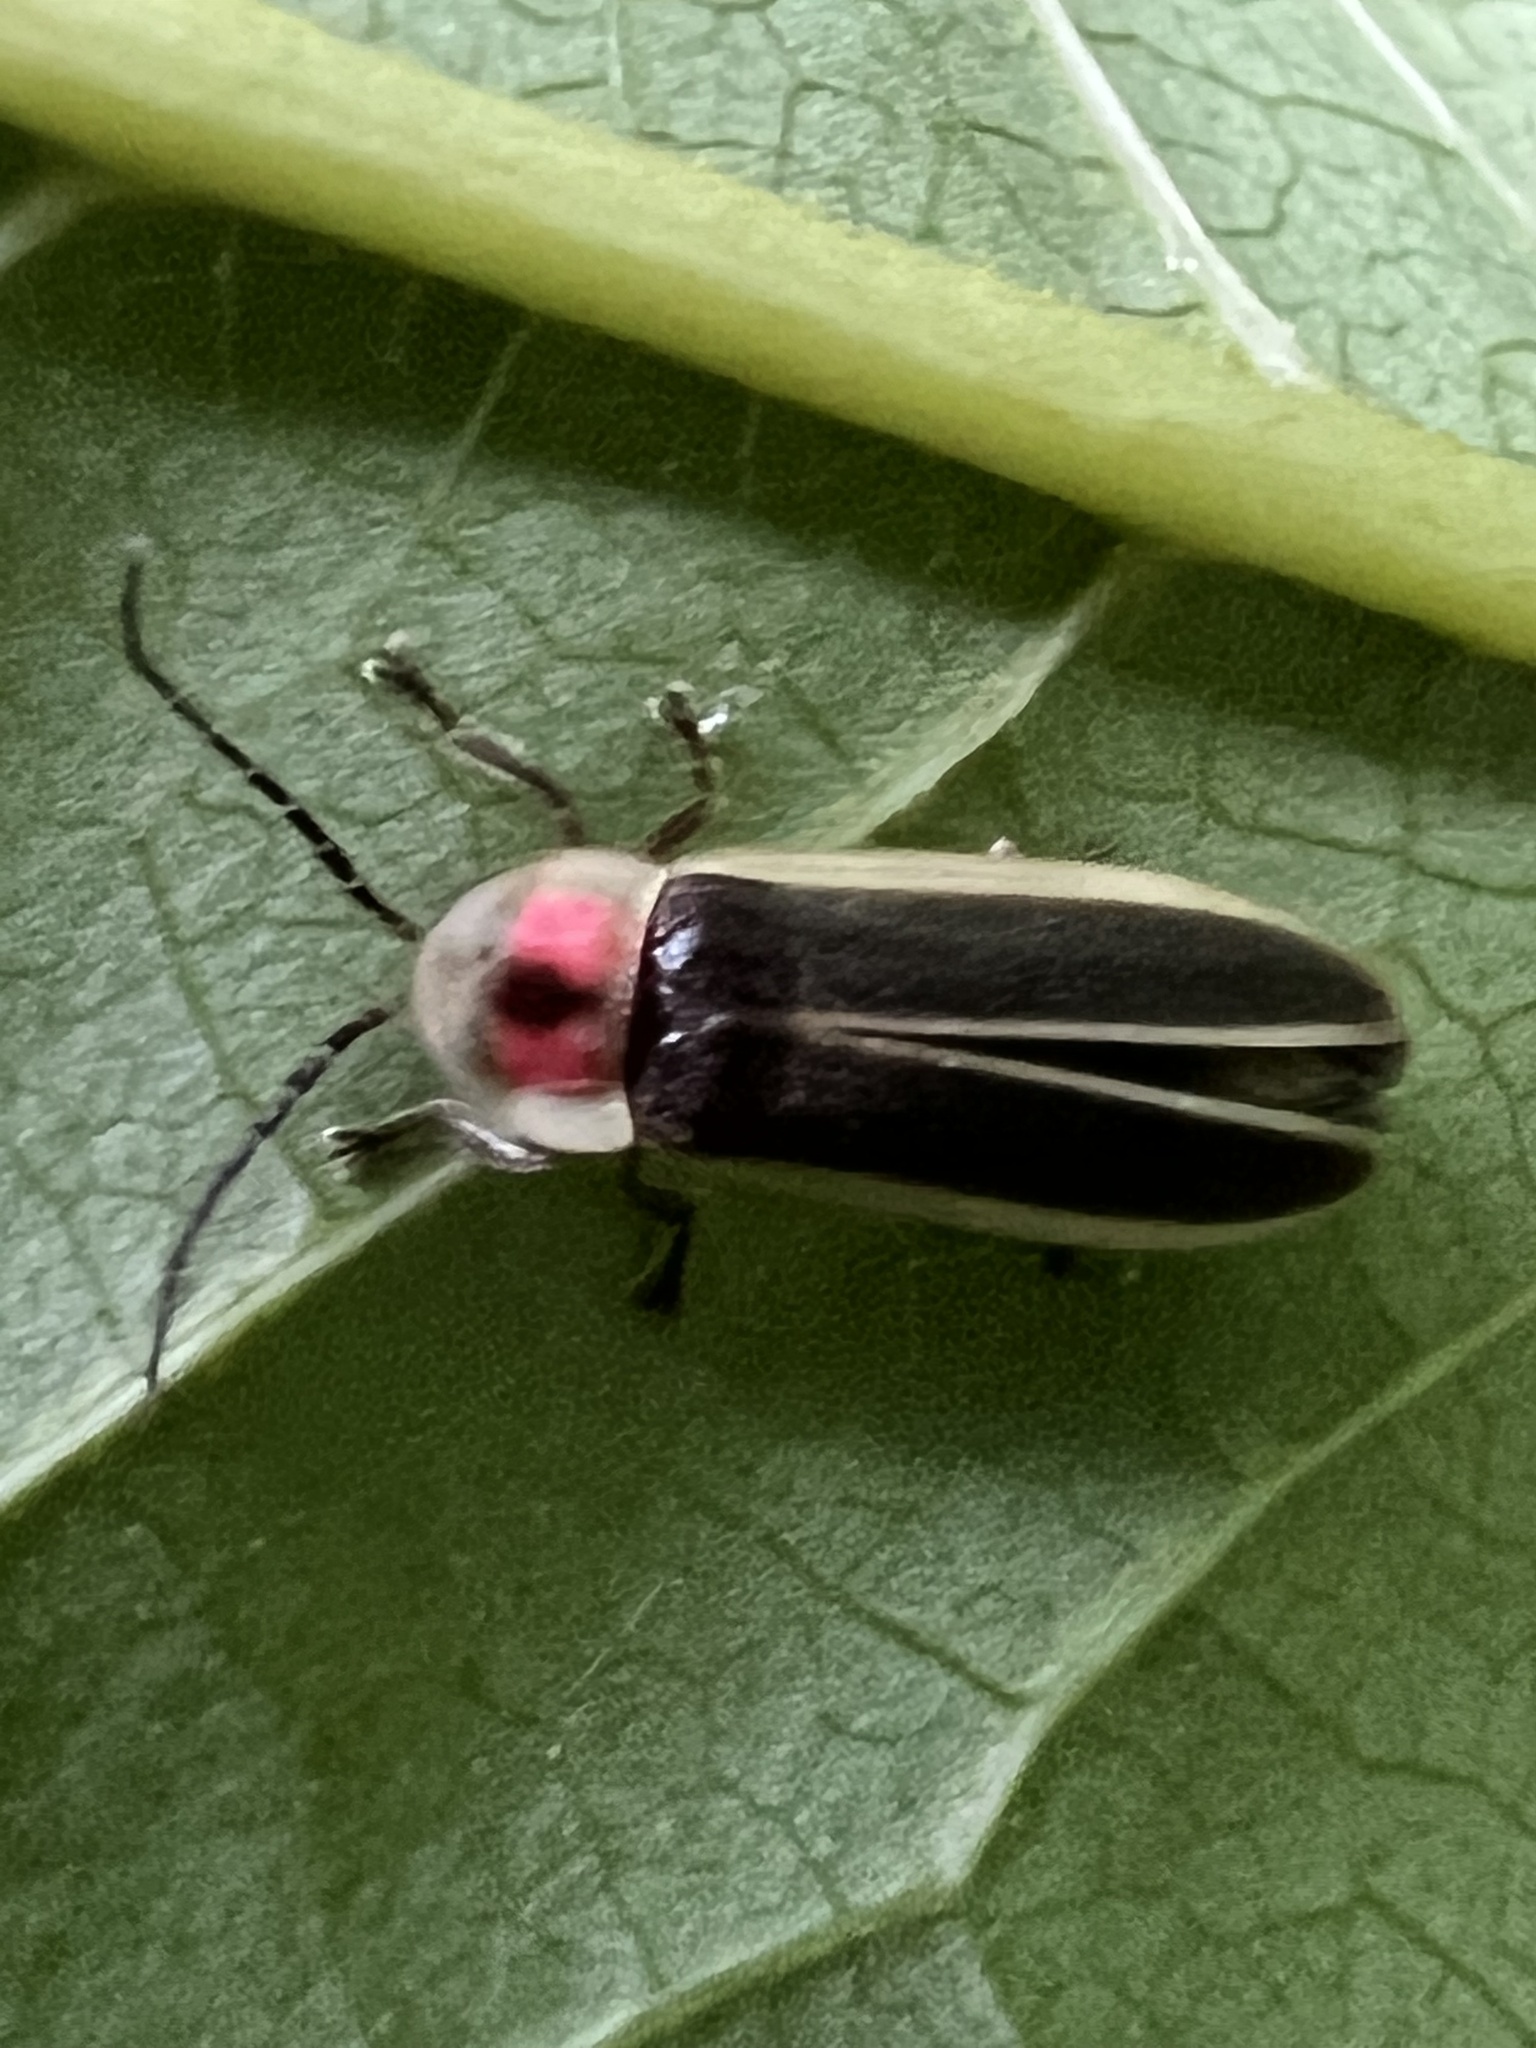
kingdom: Animalia
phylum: Arthropoda
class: Insecta
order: Coleoptera
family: Lampyridae
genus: Photinus
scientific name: Photinus pyralis
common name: Big dipper firefly
